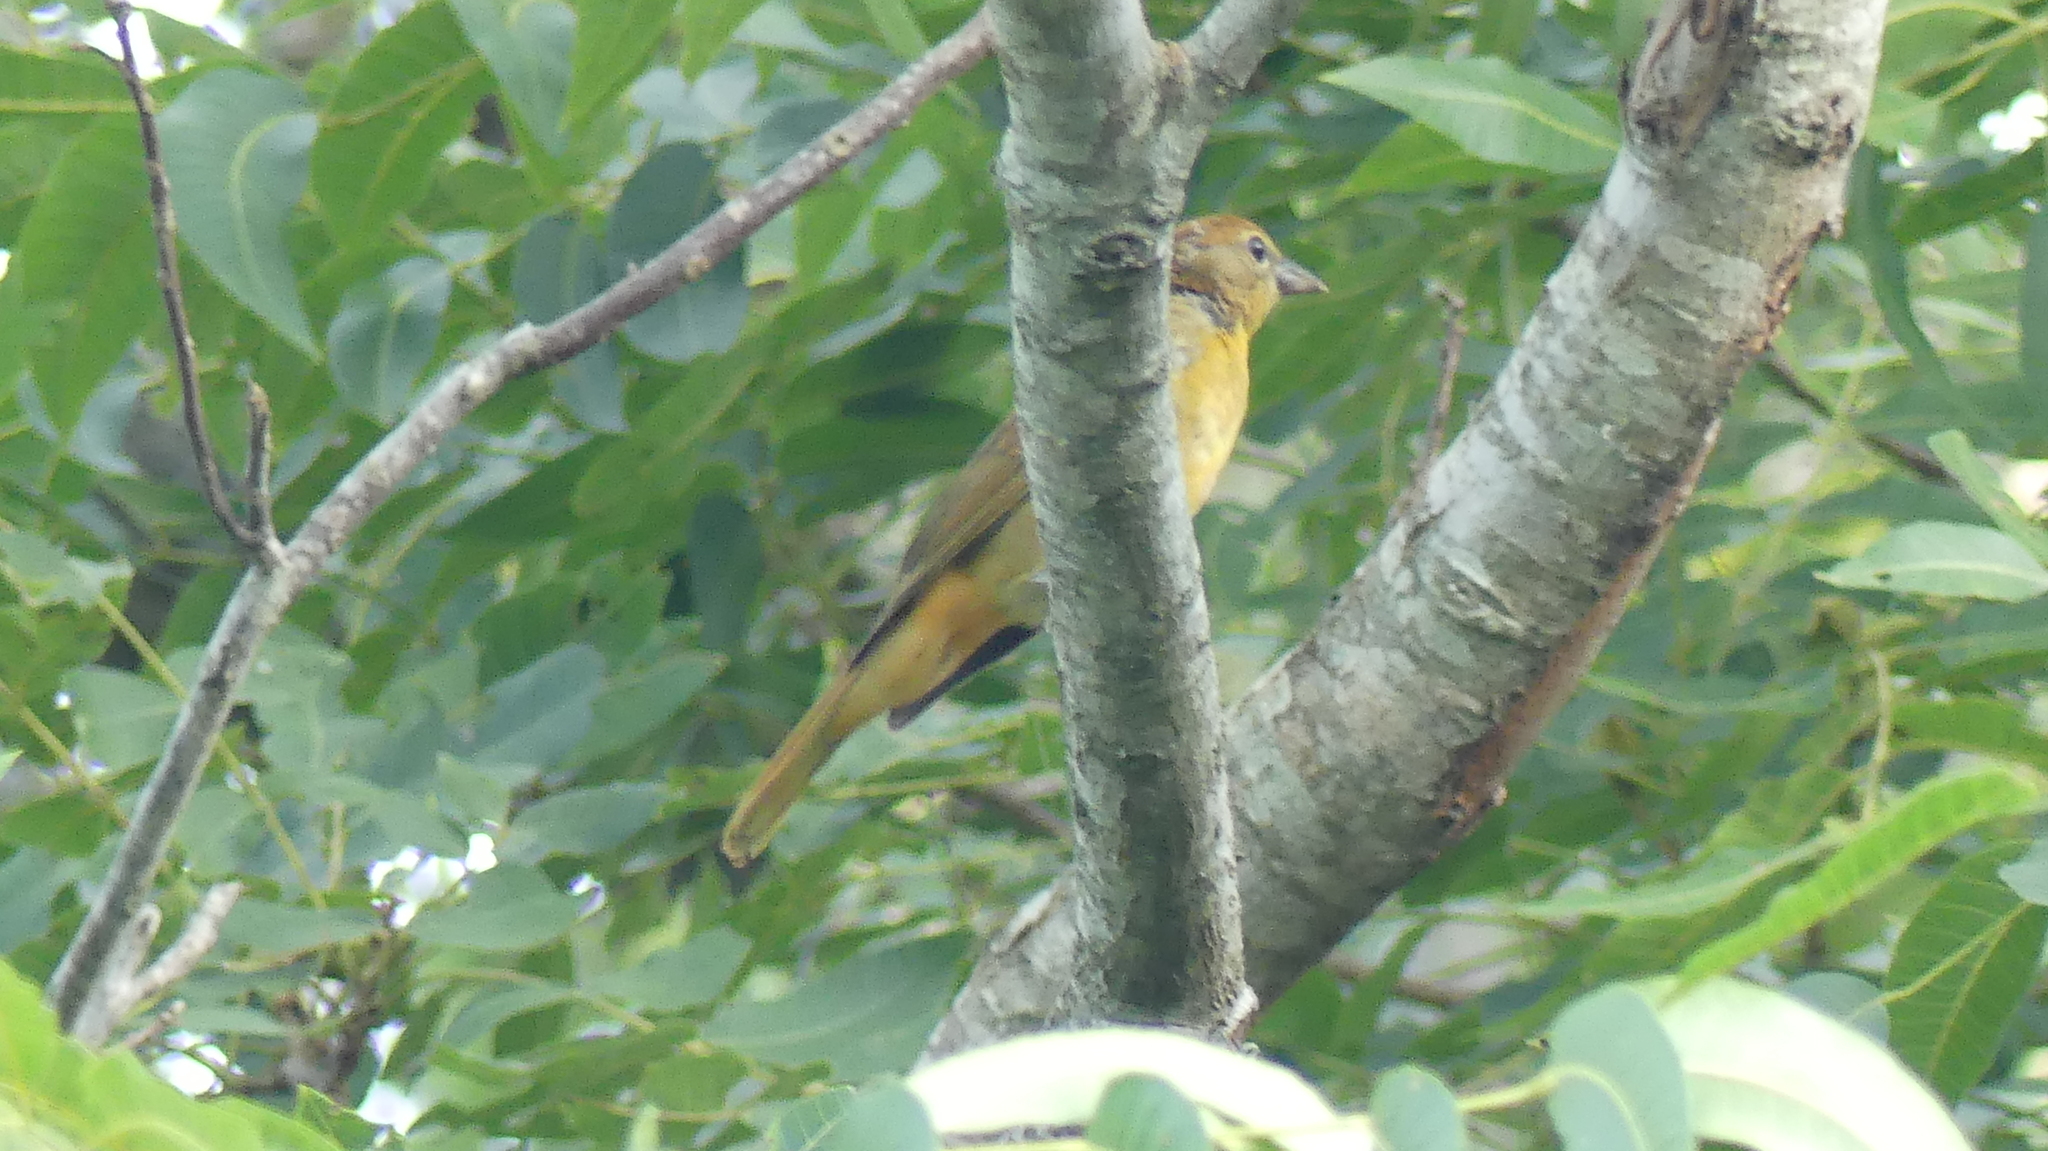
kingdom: Animalia
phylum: Chordata
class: Aves
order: Passeriformes
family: Cardinalidae
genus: Piranga
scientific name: Piranga rubra
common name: Summer tanager
